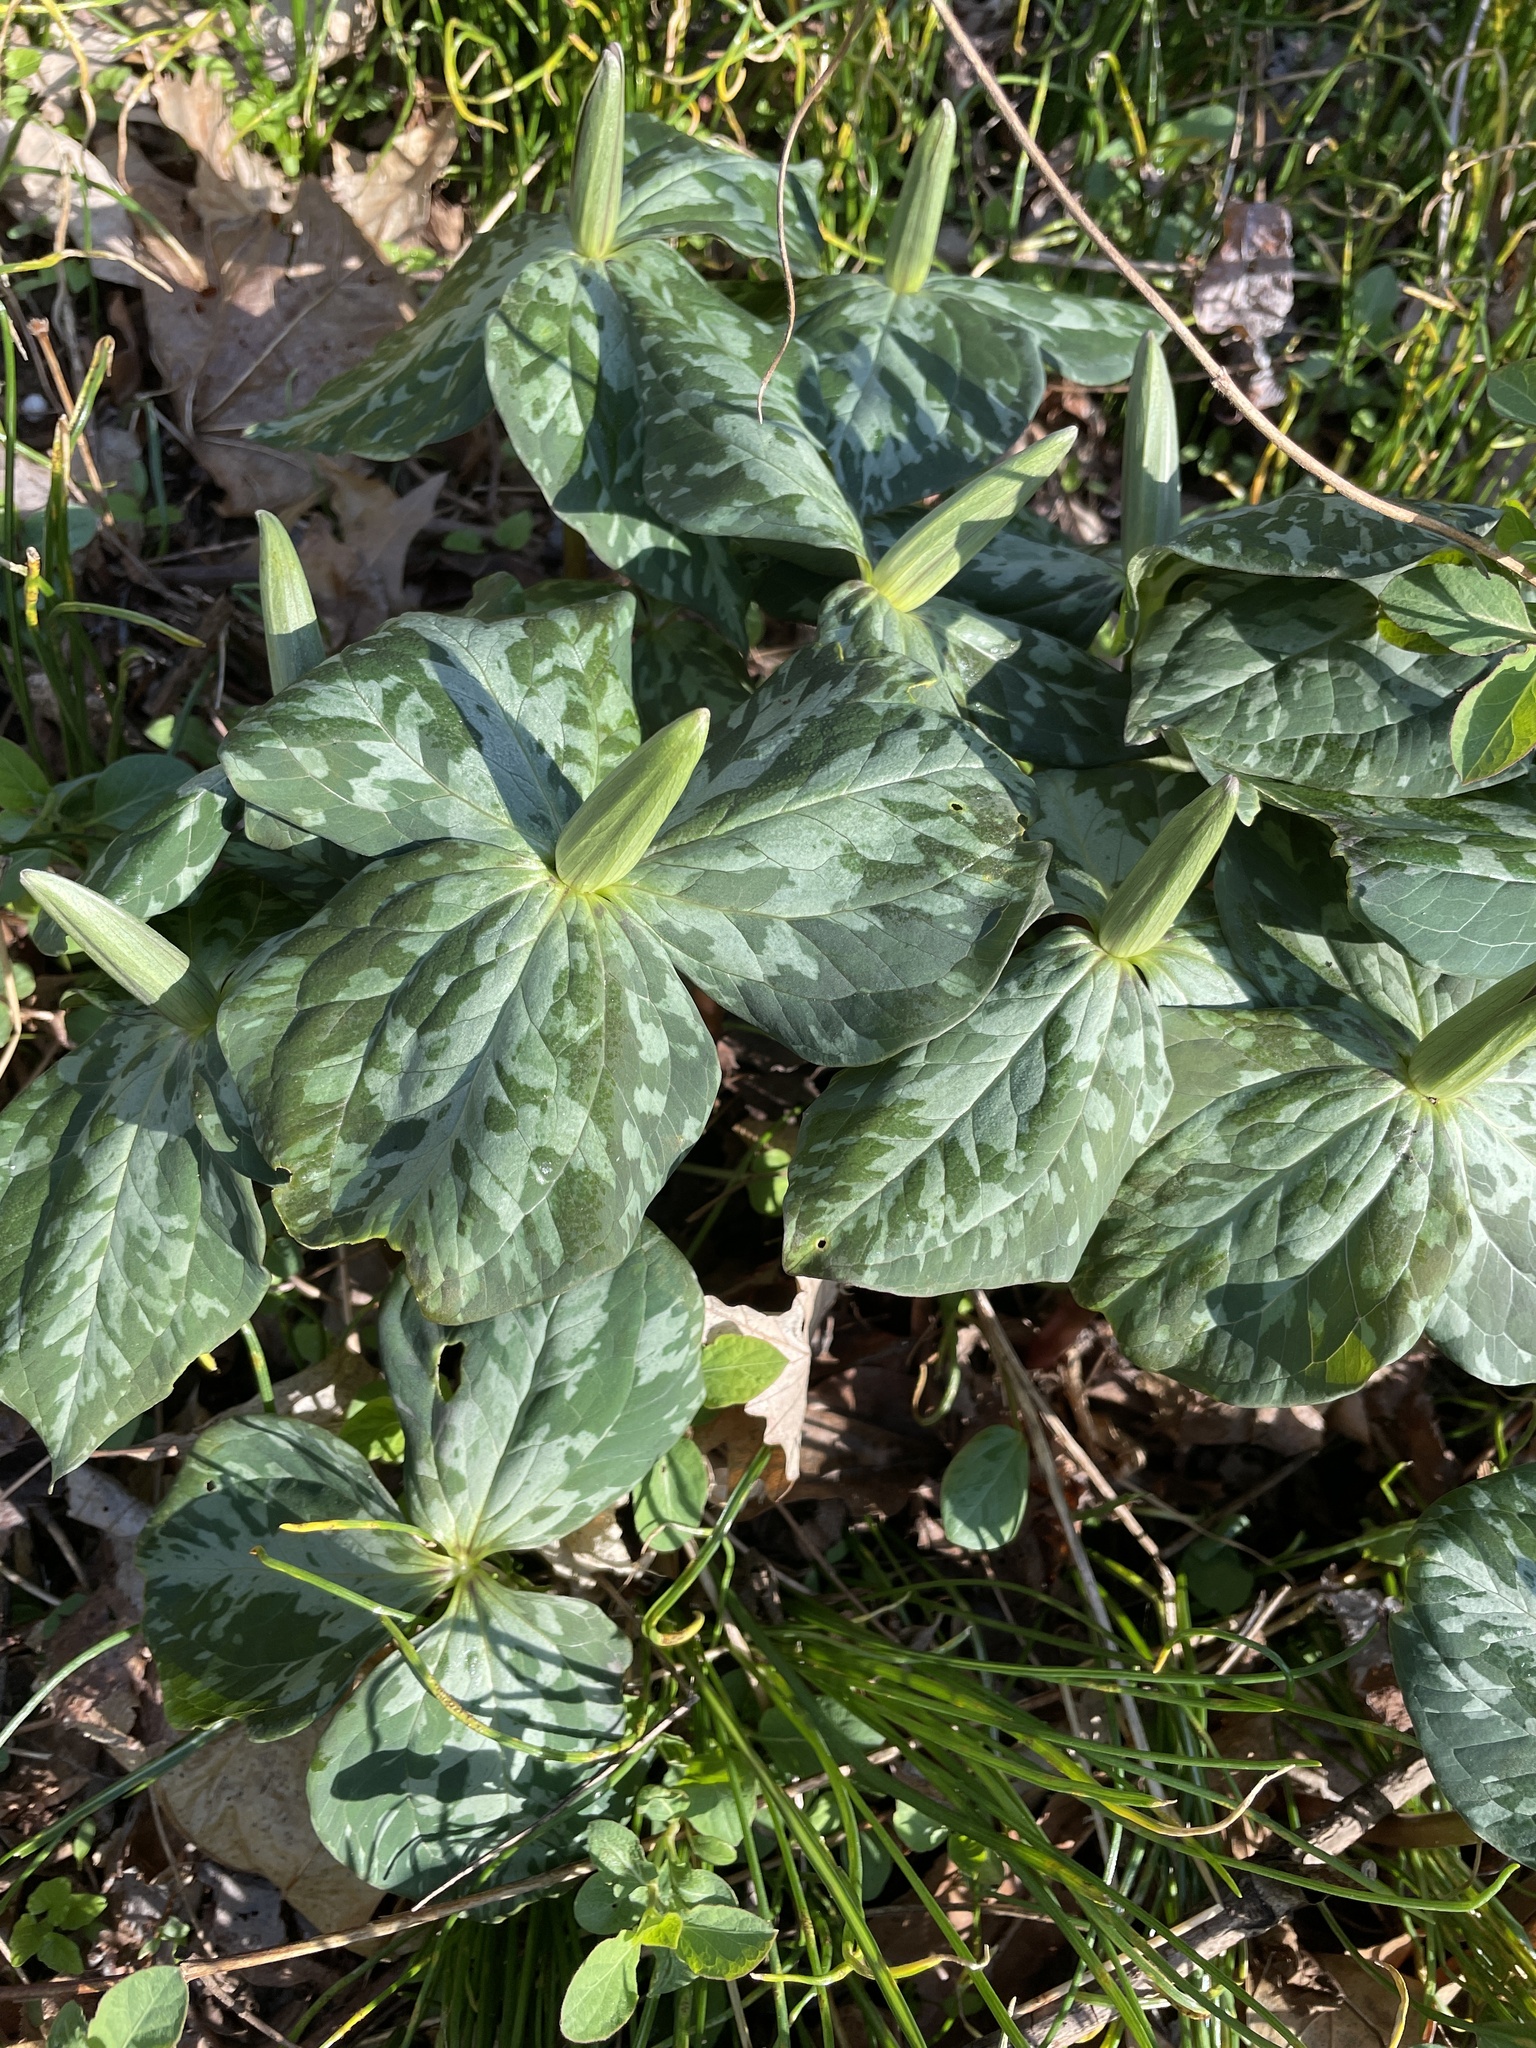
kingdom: Plantae
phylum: Tracheophyta
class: Liliopsida
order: Liliales
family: Melanthiaceae
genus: Trillium
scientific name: Trillium cuneatum
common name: Cuneate trillium
